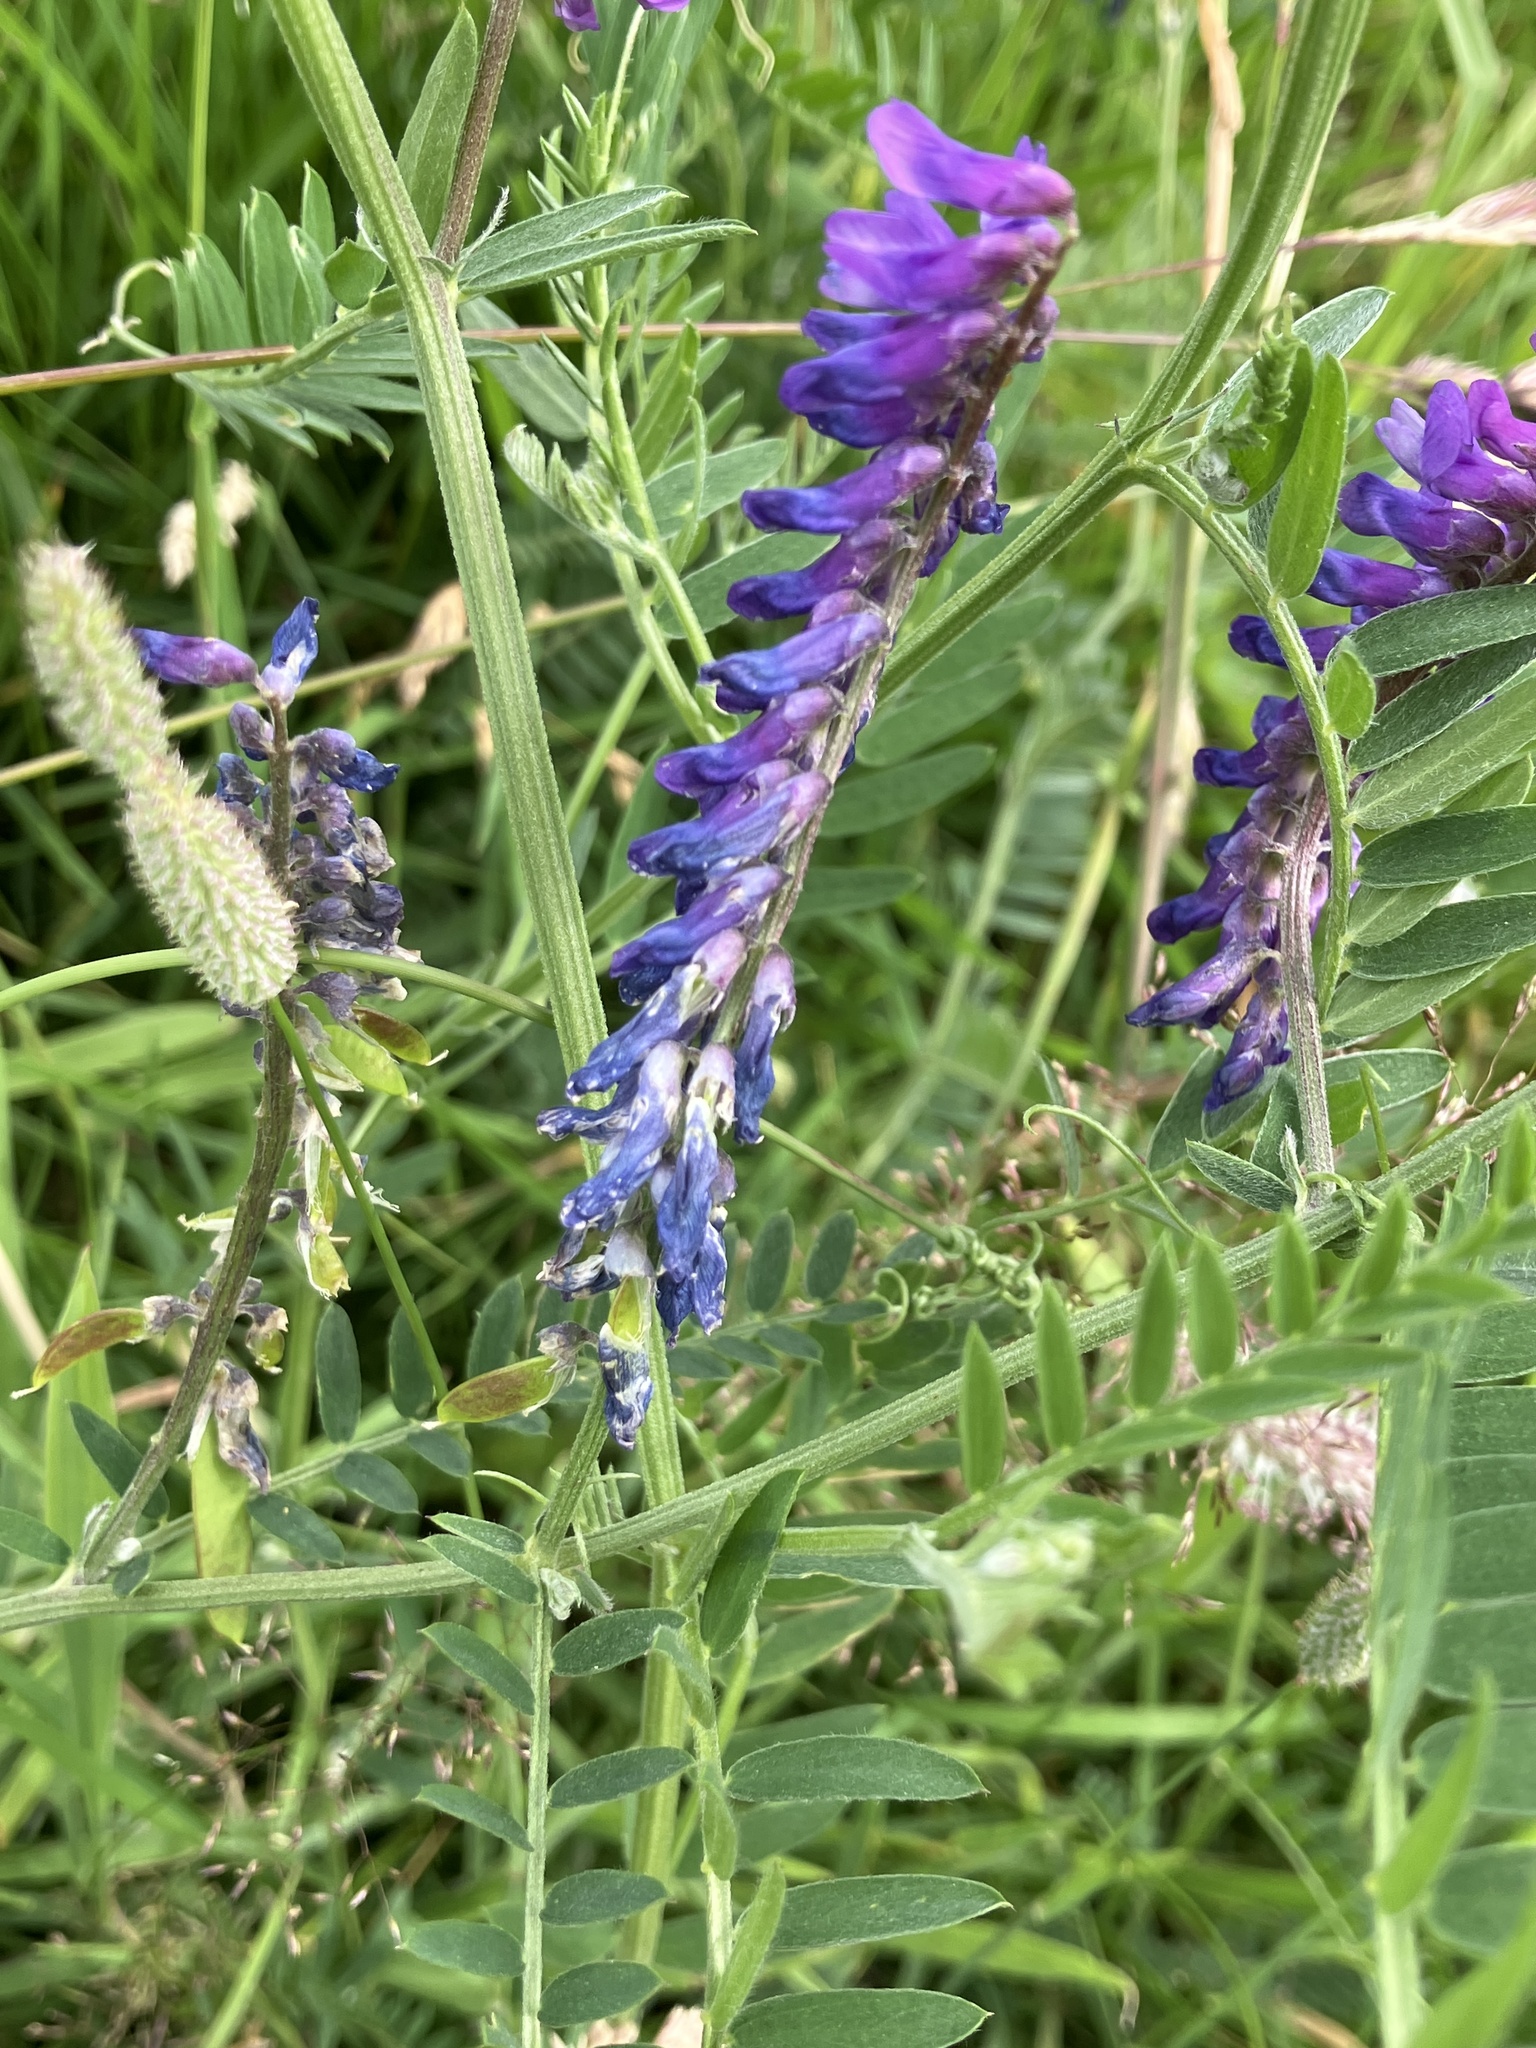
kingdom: Plantae
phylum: Tracheophyta
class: Magnoliopsida
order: Fabales
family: Fabaceae
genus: Vicia
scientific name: Vicia cracca
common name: Bird vetch
